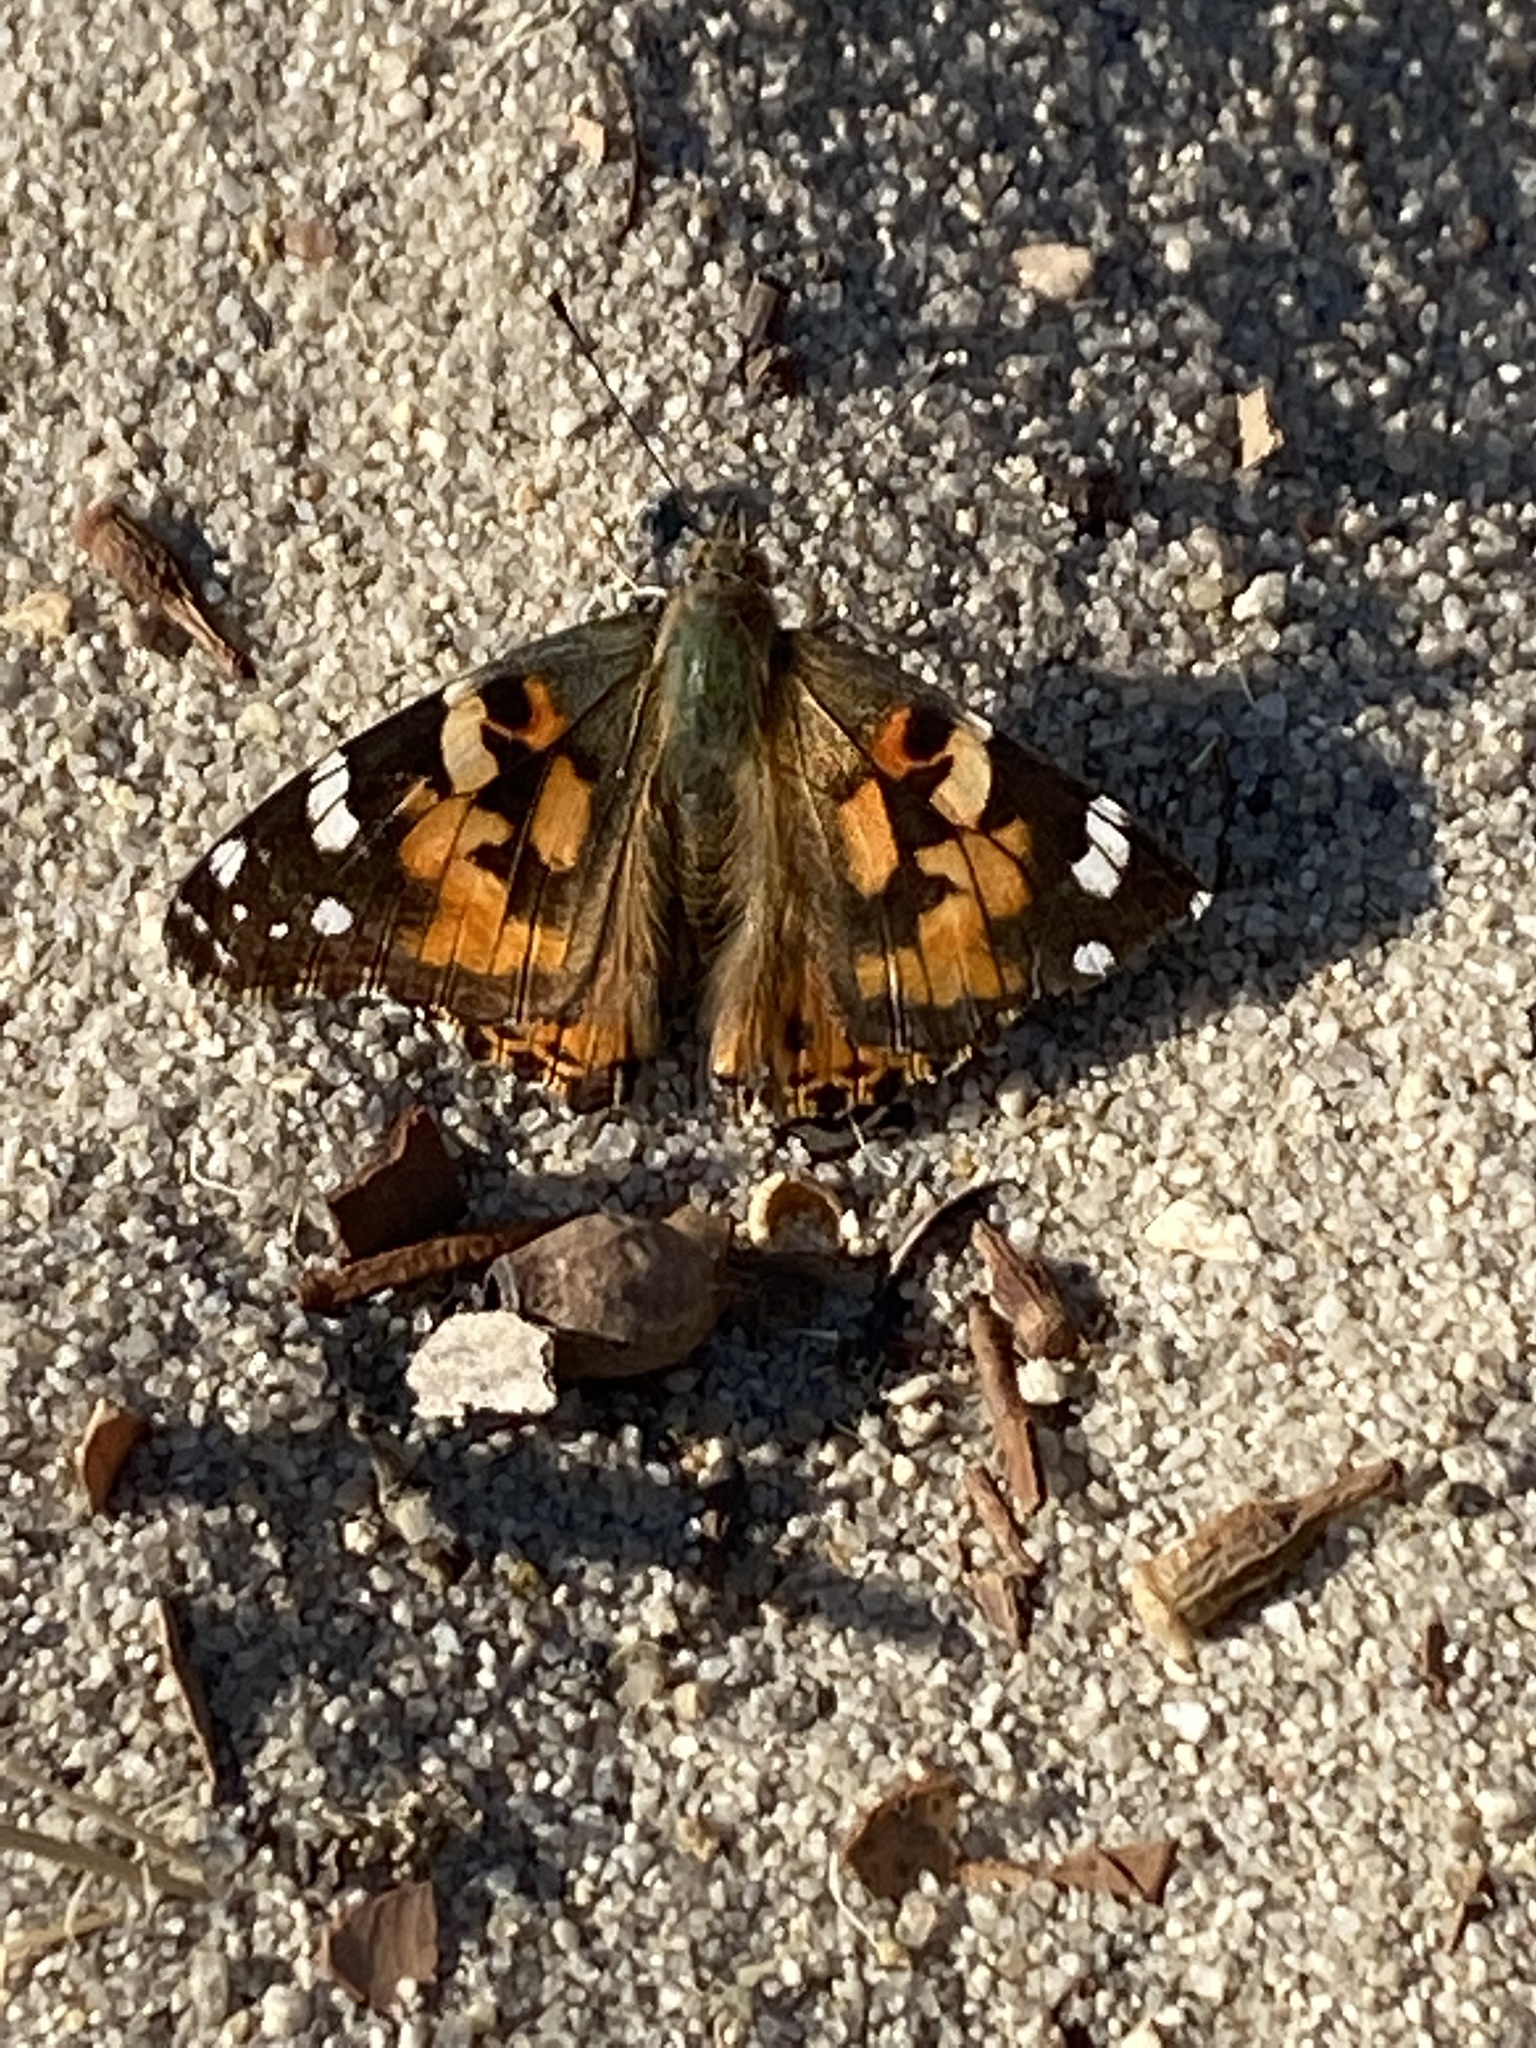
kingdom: Animalia
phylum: Arthropoda
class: Insecta
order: Lepidoptera
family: Nymphalidae
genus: Vanessa
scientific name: Vanessa cardui
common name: Painted lady
